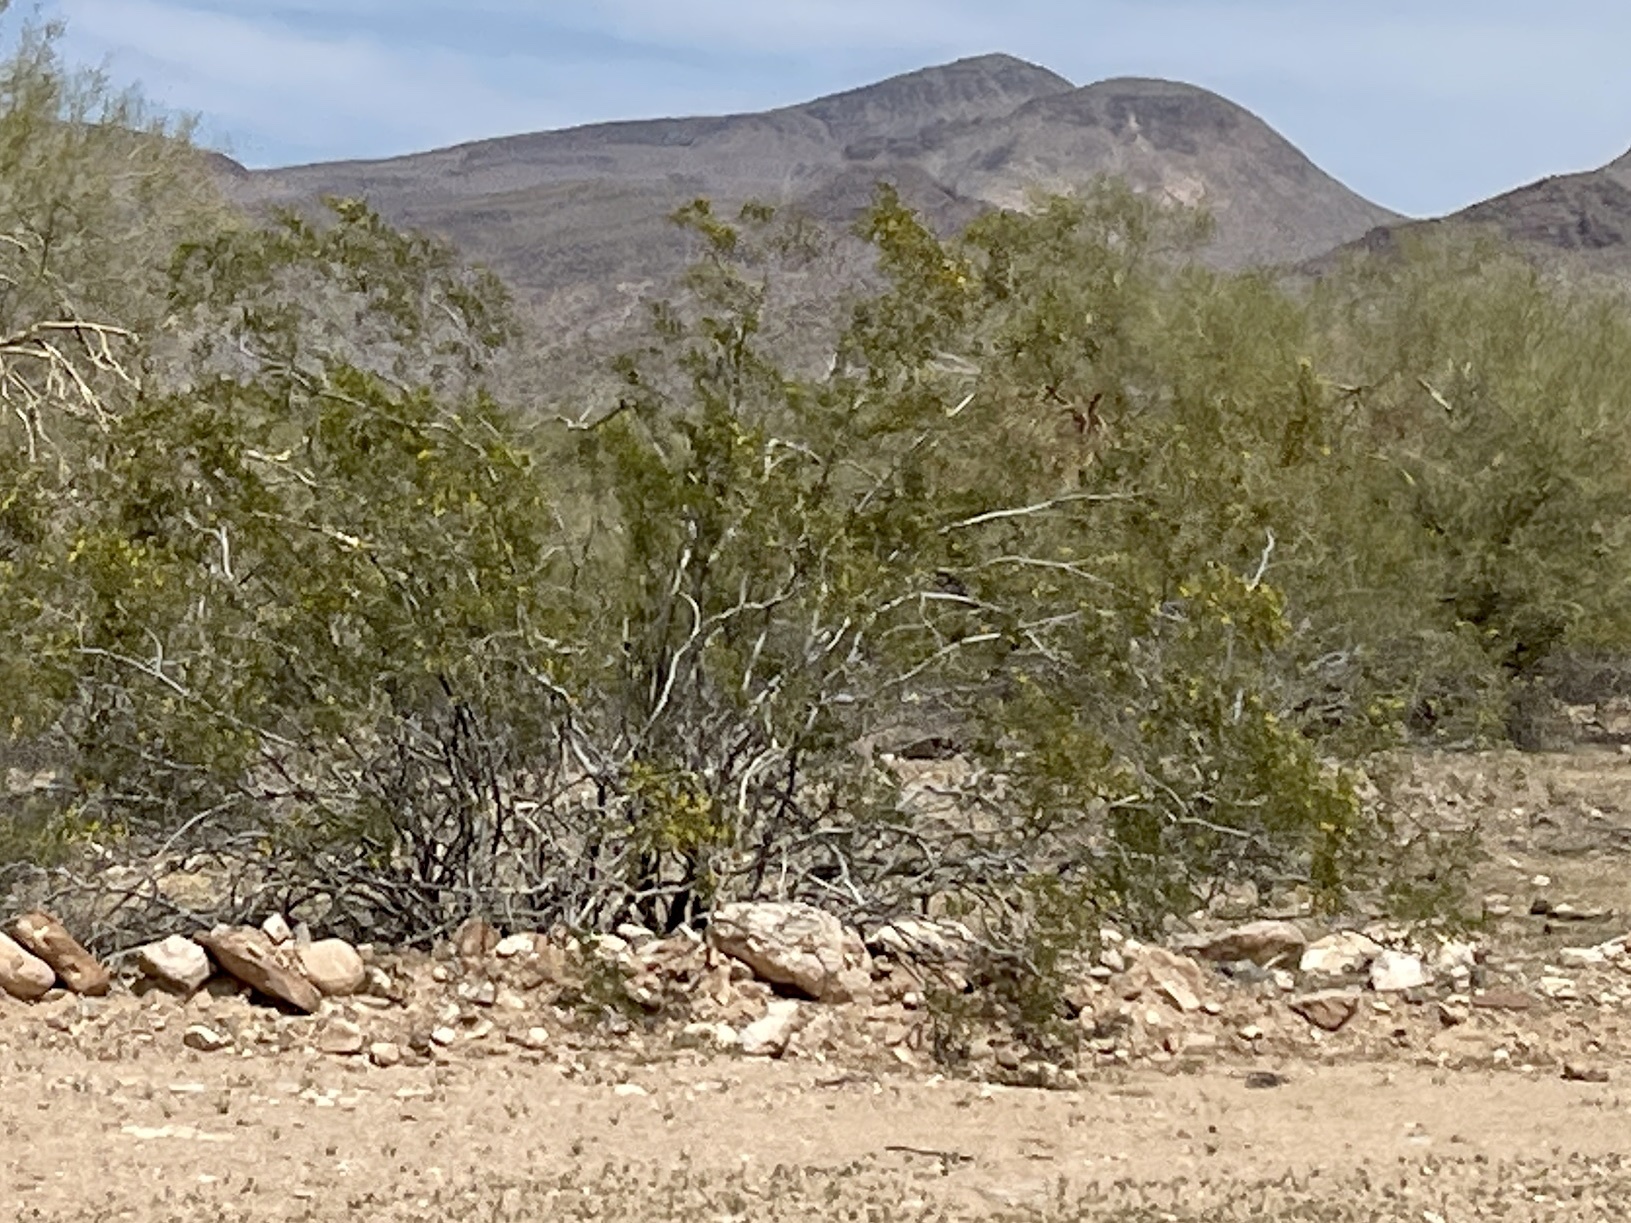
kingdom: Plantae
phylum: Tracheophyta
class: Magnoliopsida
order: Zygophyllales
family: Zygophyllaceae
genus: Larrea
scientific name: Larrea tridentata
